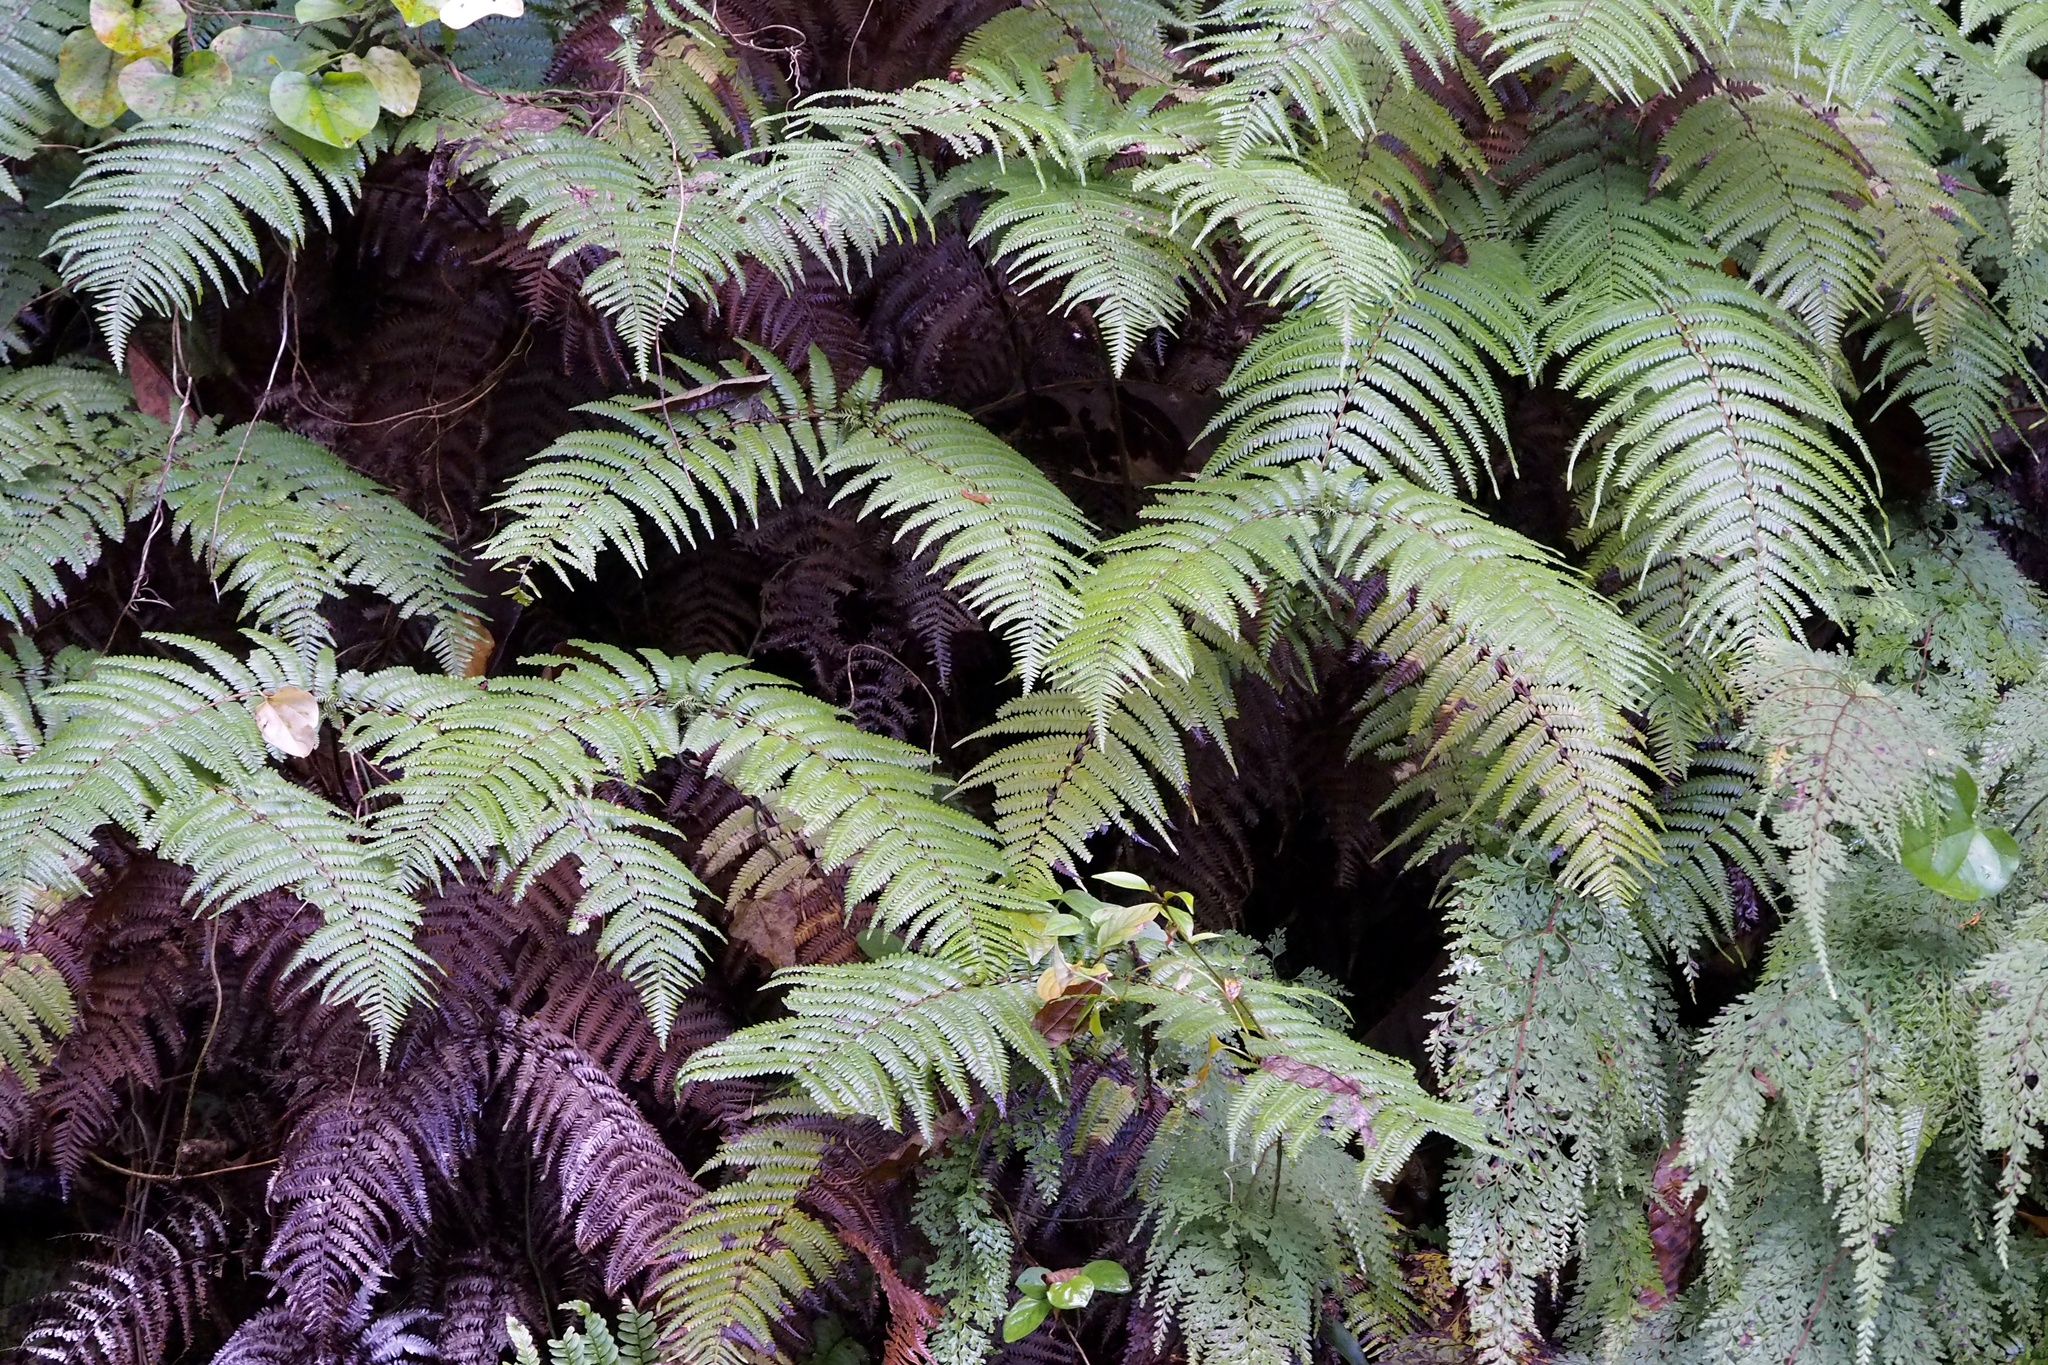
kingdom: Plantae
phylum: Tracheophyta
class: Polypodiopsida
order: Gleicheniales
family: Gleicheniaceae
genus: Diplopterygium
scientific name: Diplopterygium glaucum
